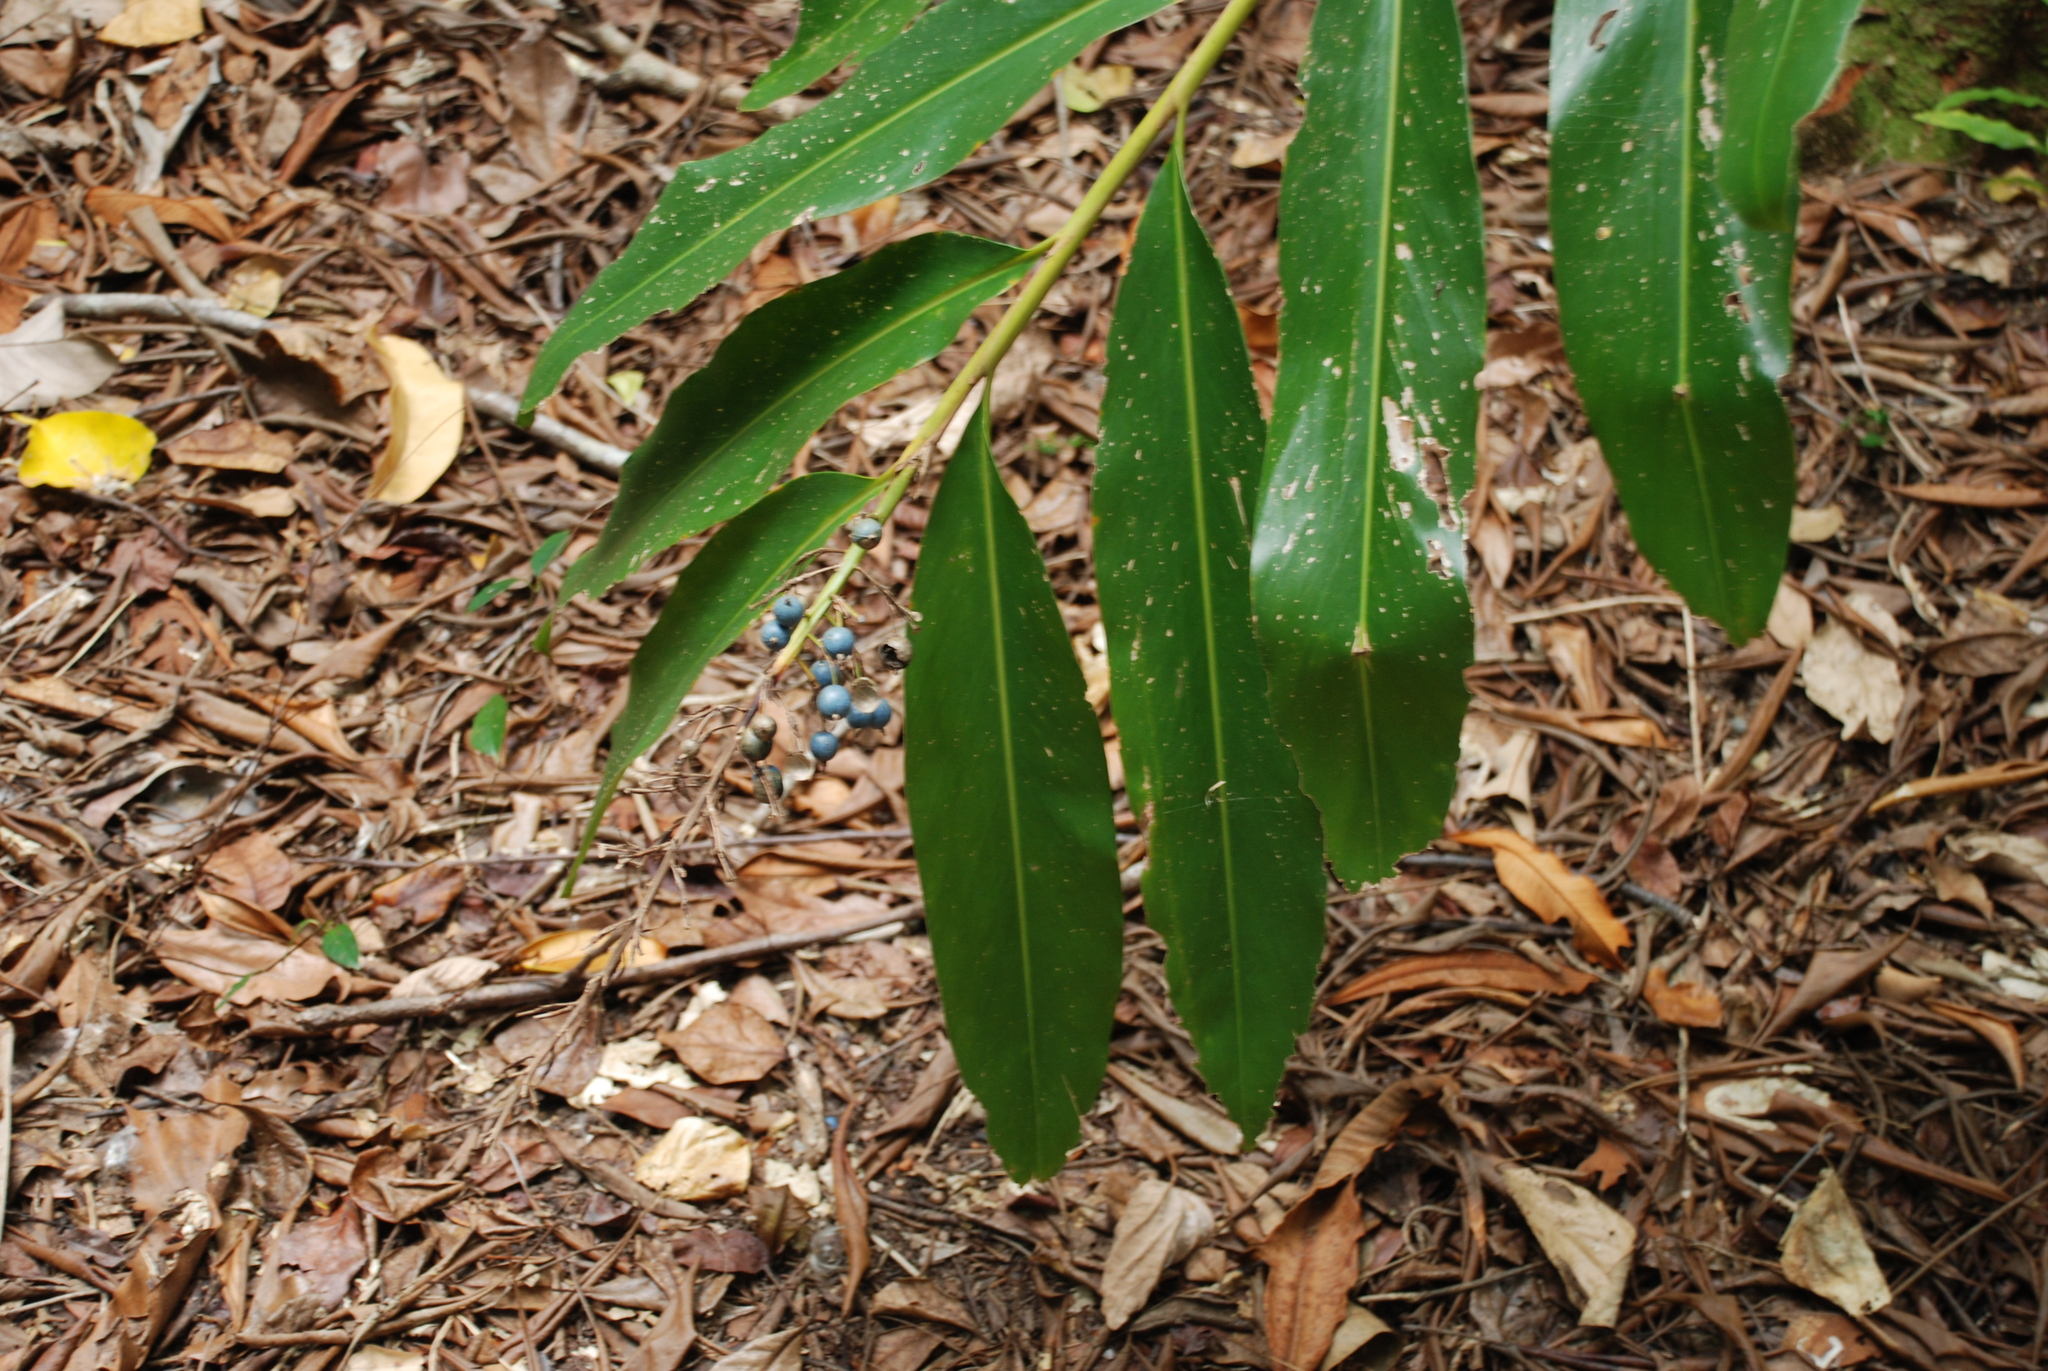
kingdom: Plantae
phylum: Tracheophyta
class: Liliopsida
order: Zingiberales
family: Zingiberaceae
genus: Alpinia
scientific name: Alpinia caerulea
